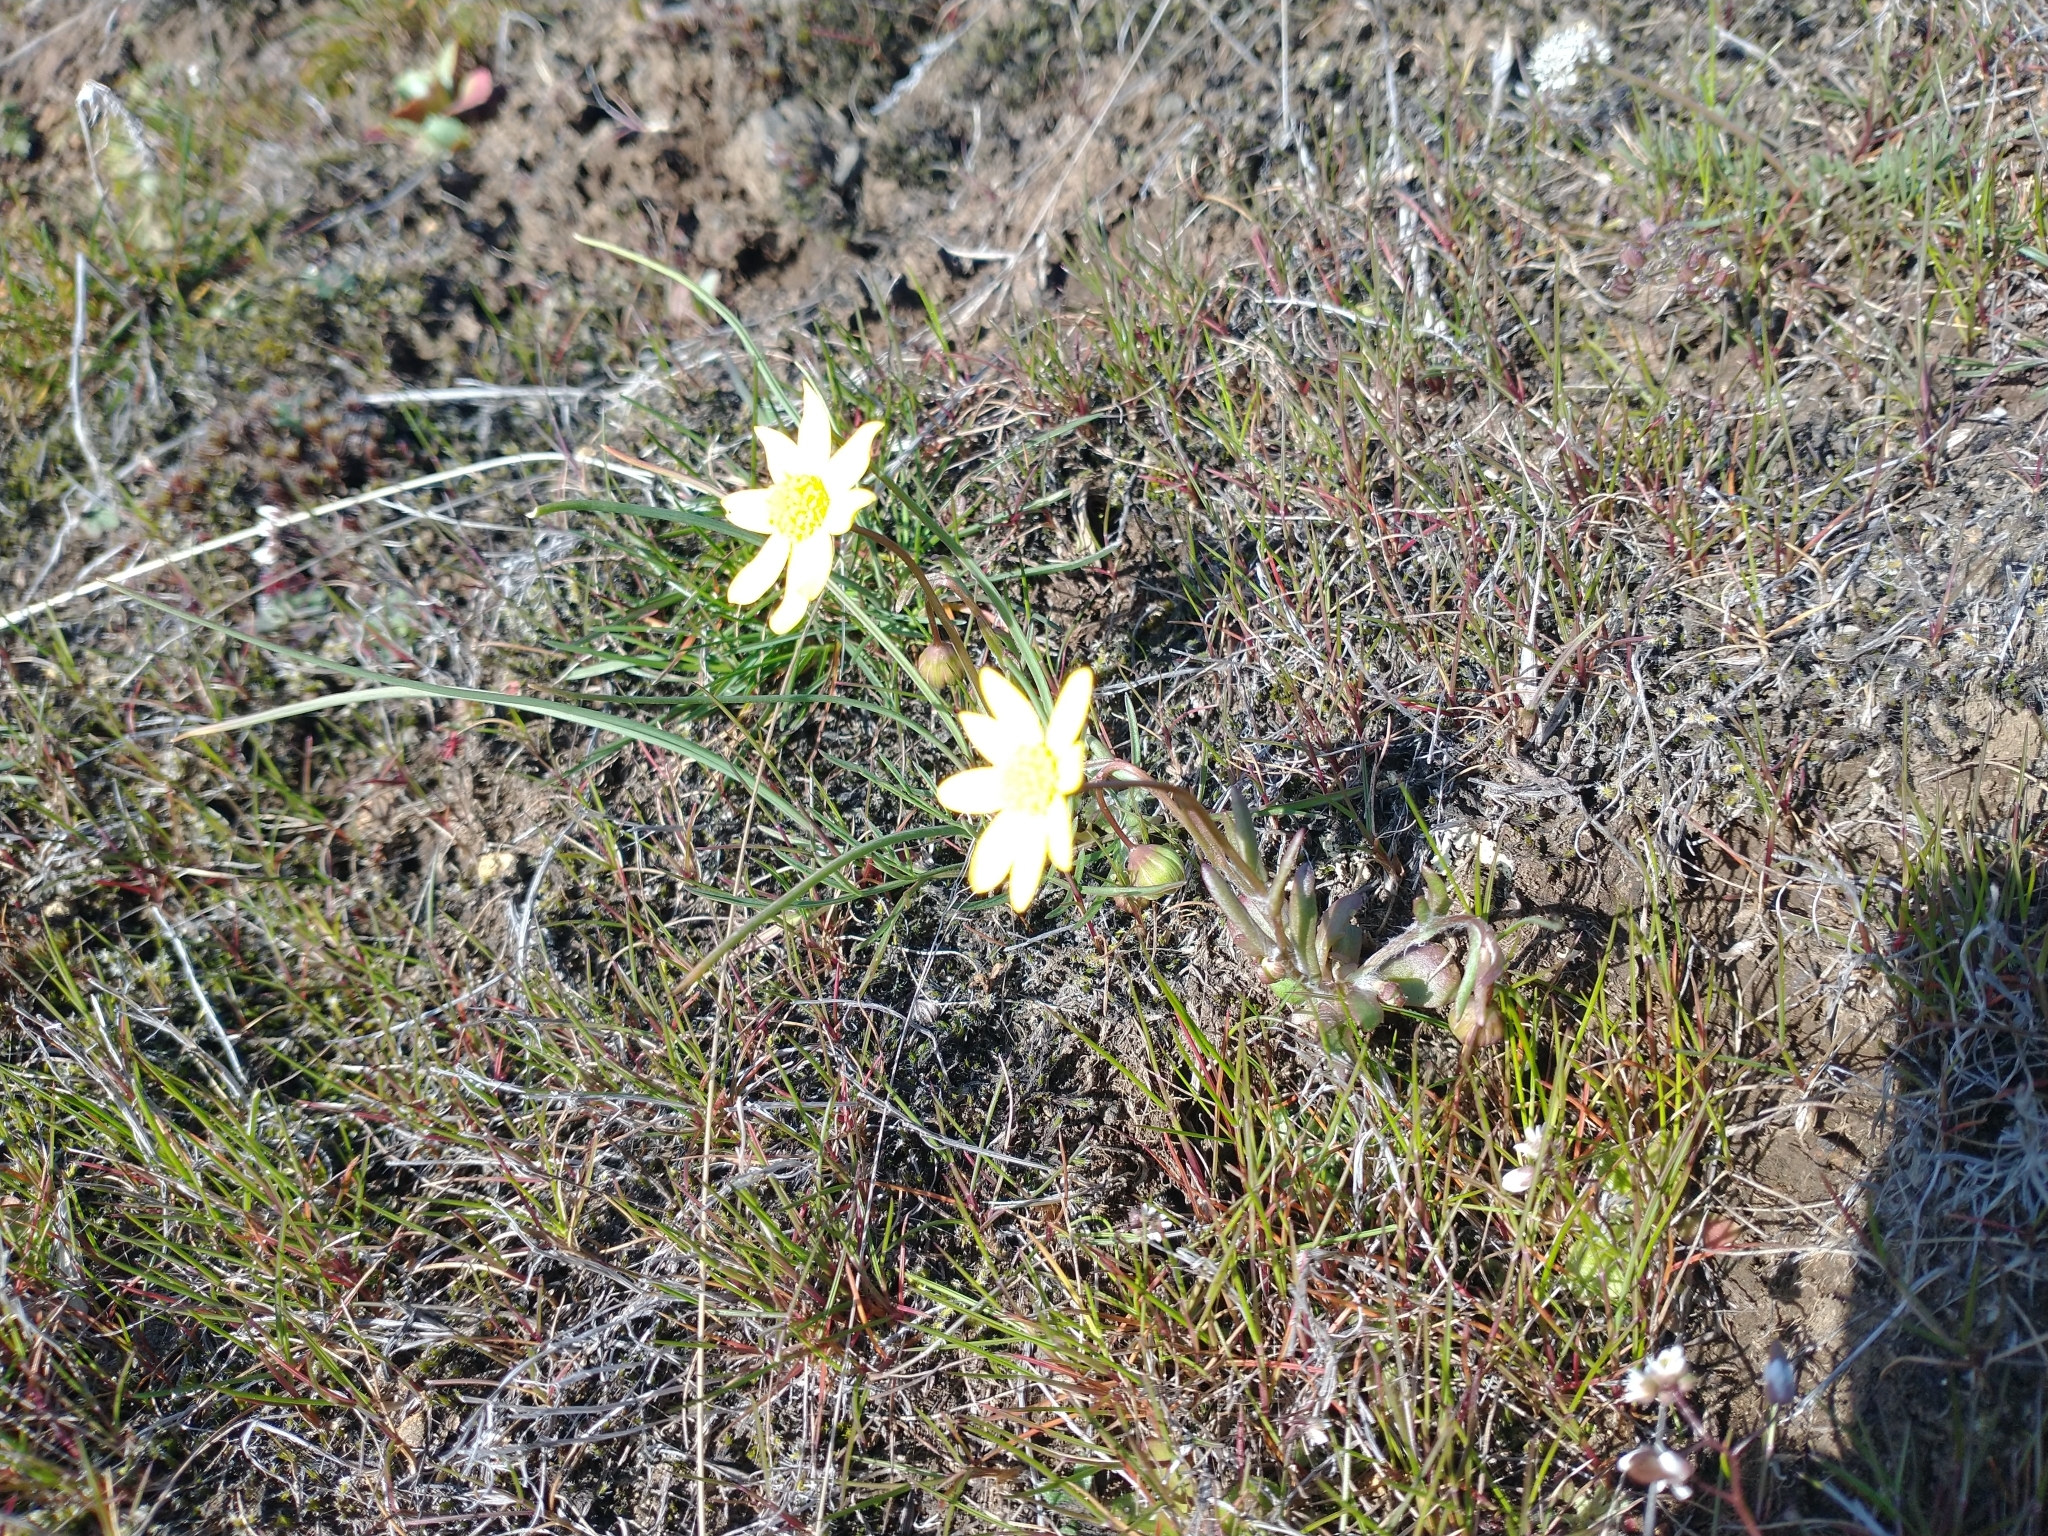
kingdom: Plantae
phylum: Tracheophyta
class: Magnoliopsida
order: Asterales
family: Asteraceae
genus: Crocidium
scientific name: Crocidium multicaule
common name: Common spring gold
